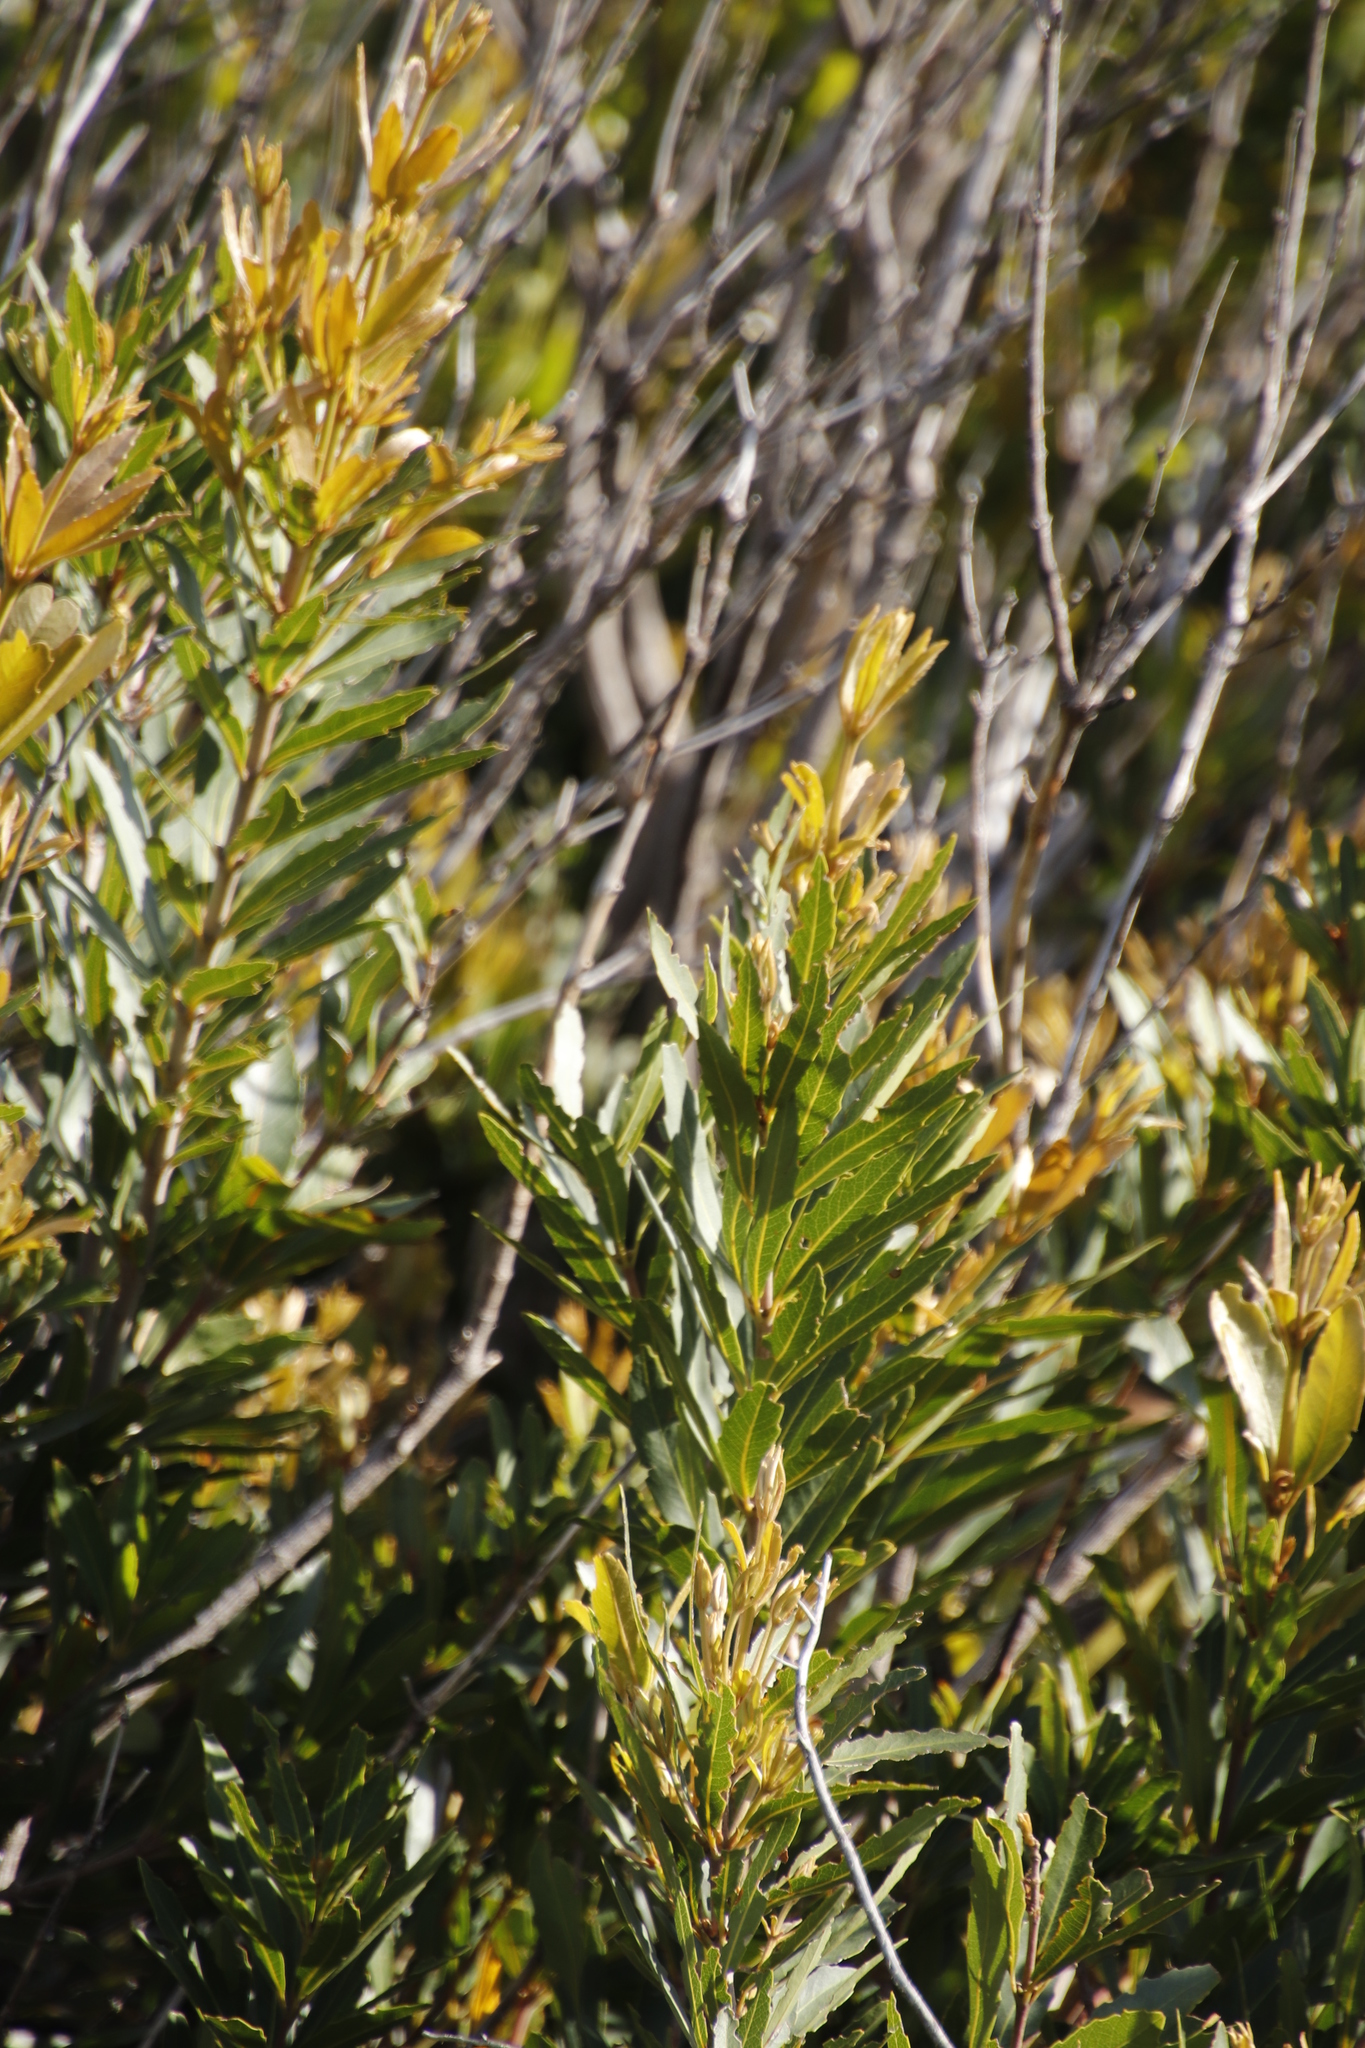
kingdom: Plantae
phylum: Tracheophyta
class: Magnoliopsida
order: Proteales
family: Proteaceae
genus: Brabejum
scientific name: Brabejum stellatifolium
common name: Wild almond
